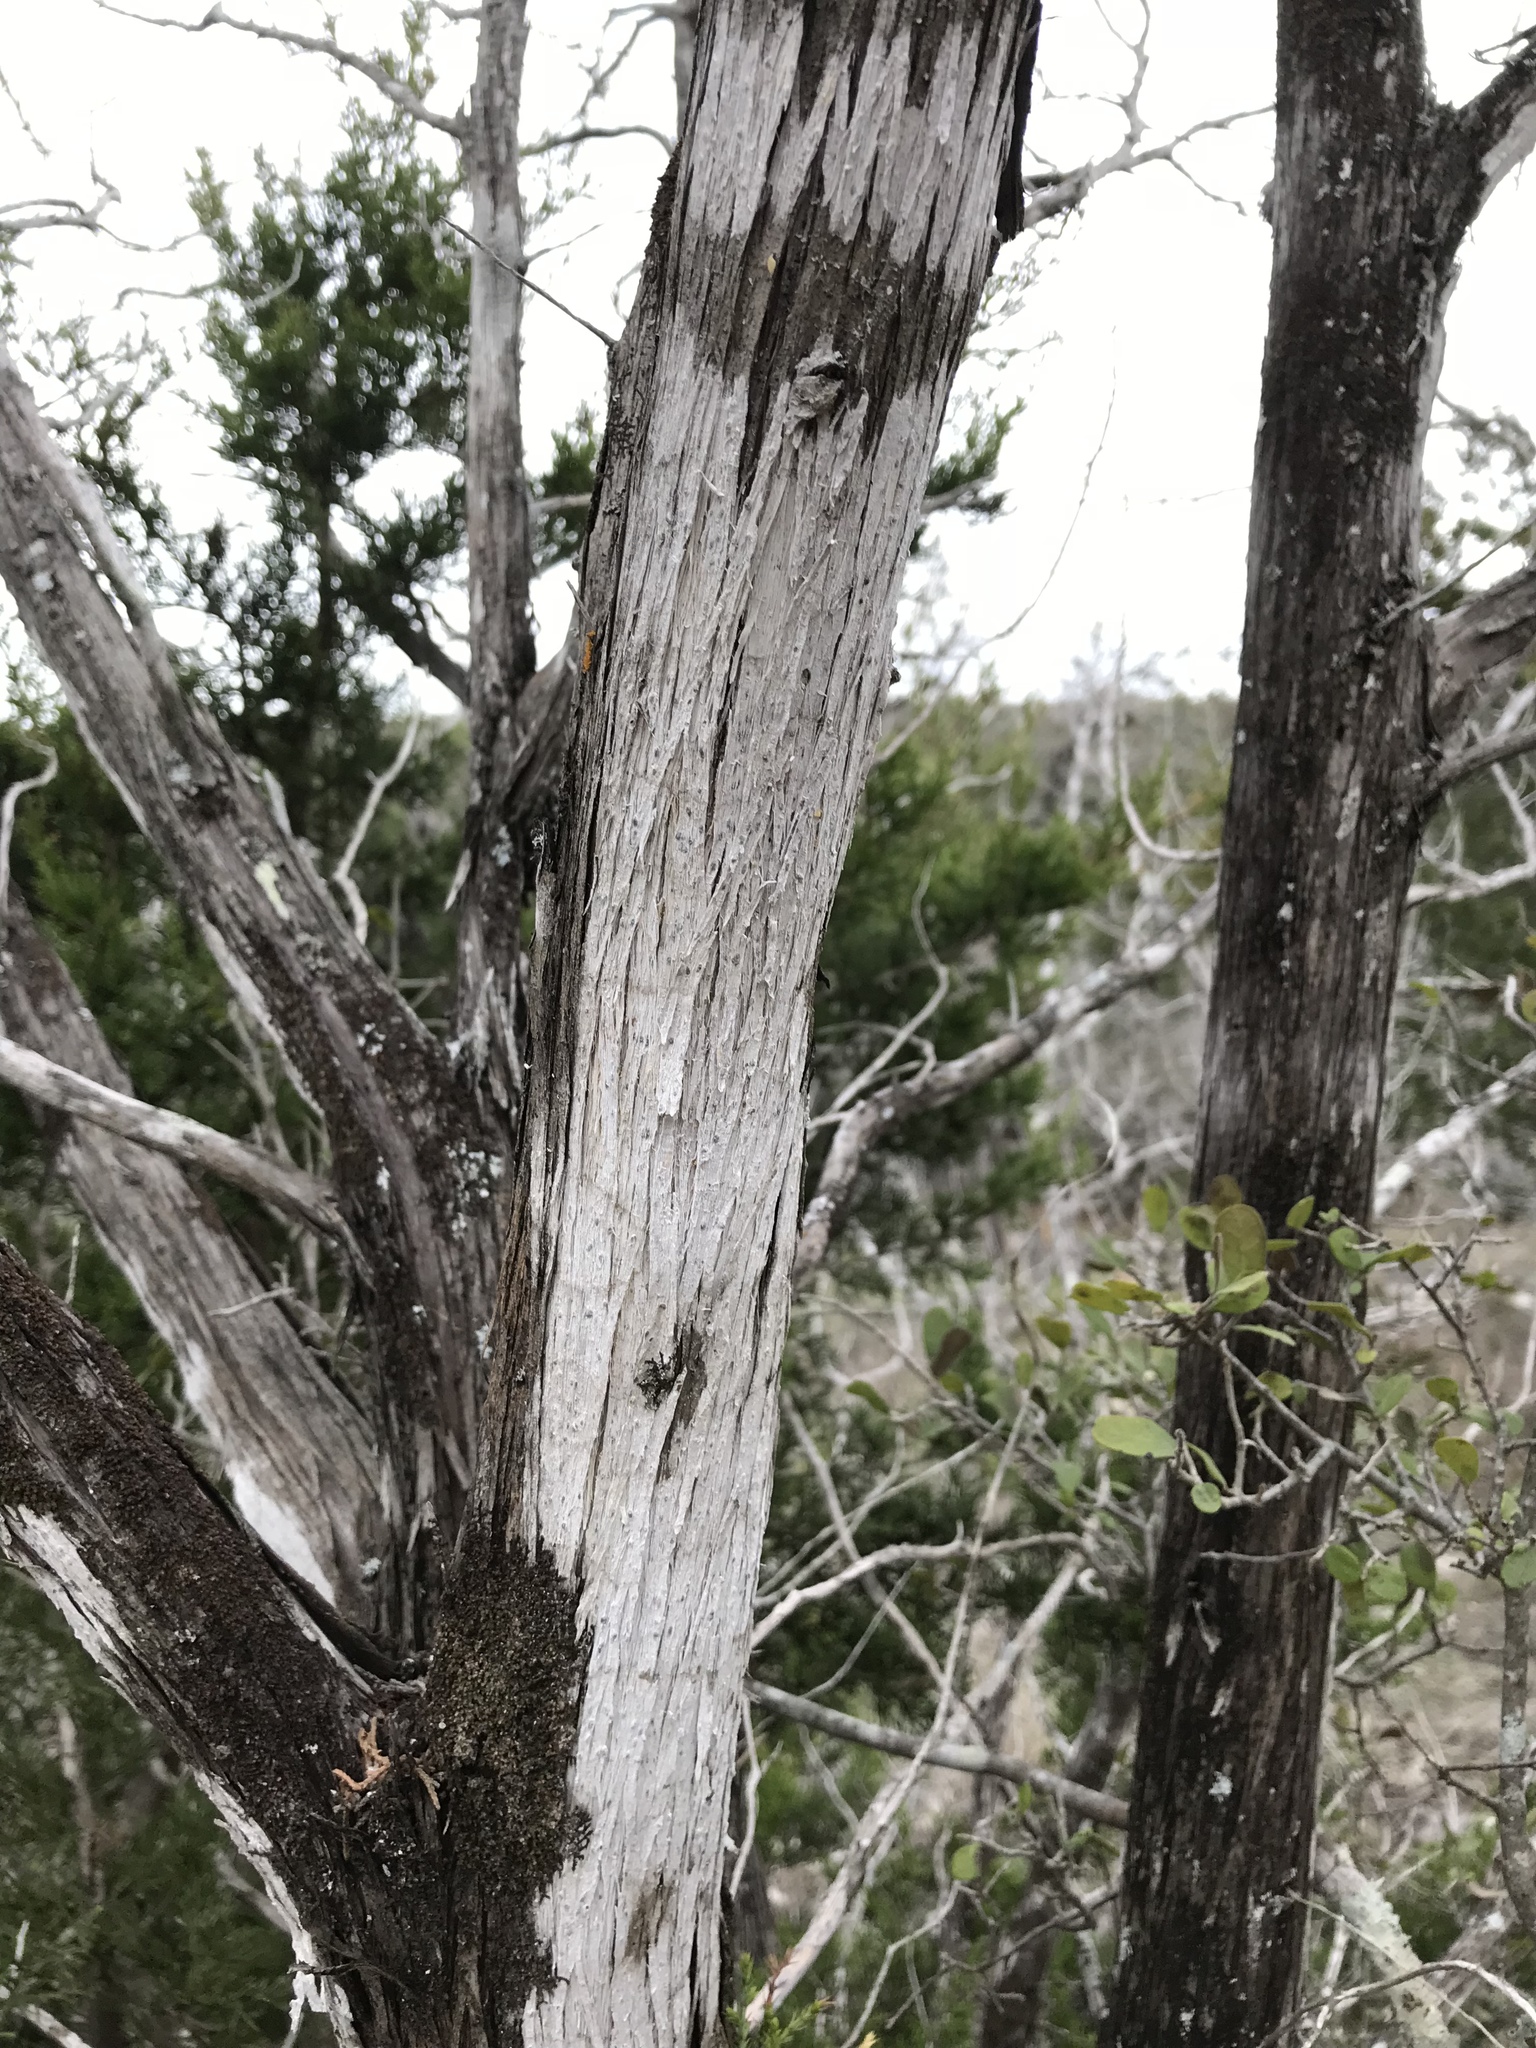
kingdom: Fungi
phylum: Ascomycota
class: Lecanoromycetes
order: Ostropales
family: Stictidaceae
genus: Robergea
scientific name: Robergea
